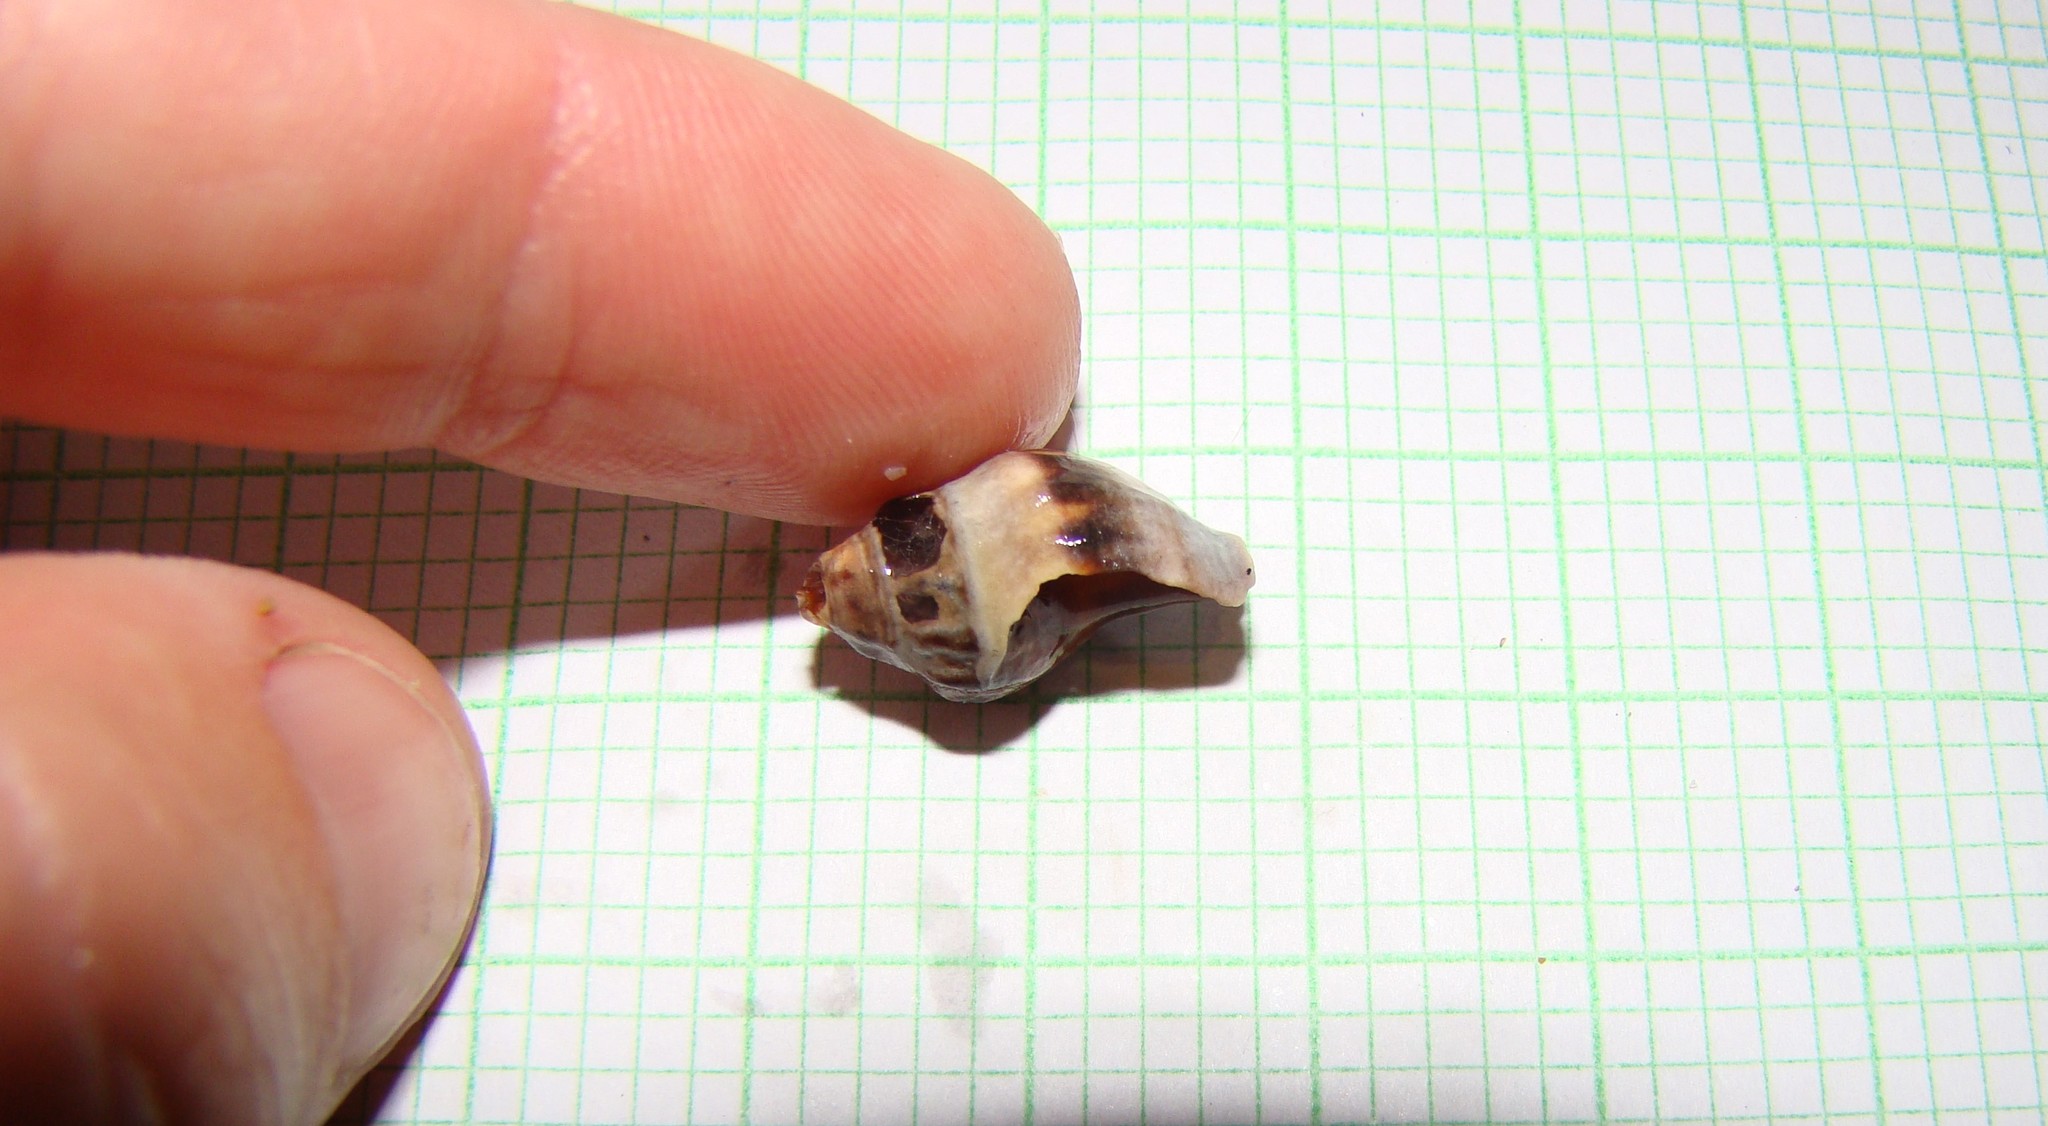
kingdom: Animalia
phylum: Mollusca
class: Gastropoda
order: Neogastropoda
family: Cominellidae
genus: Cominella
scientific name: Cominella glandiformis
